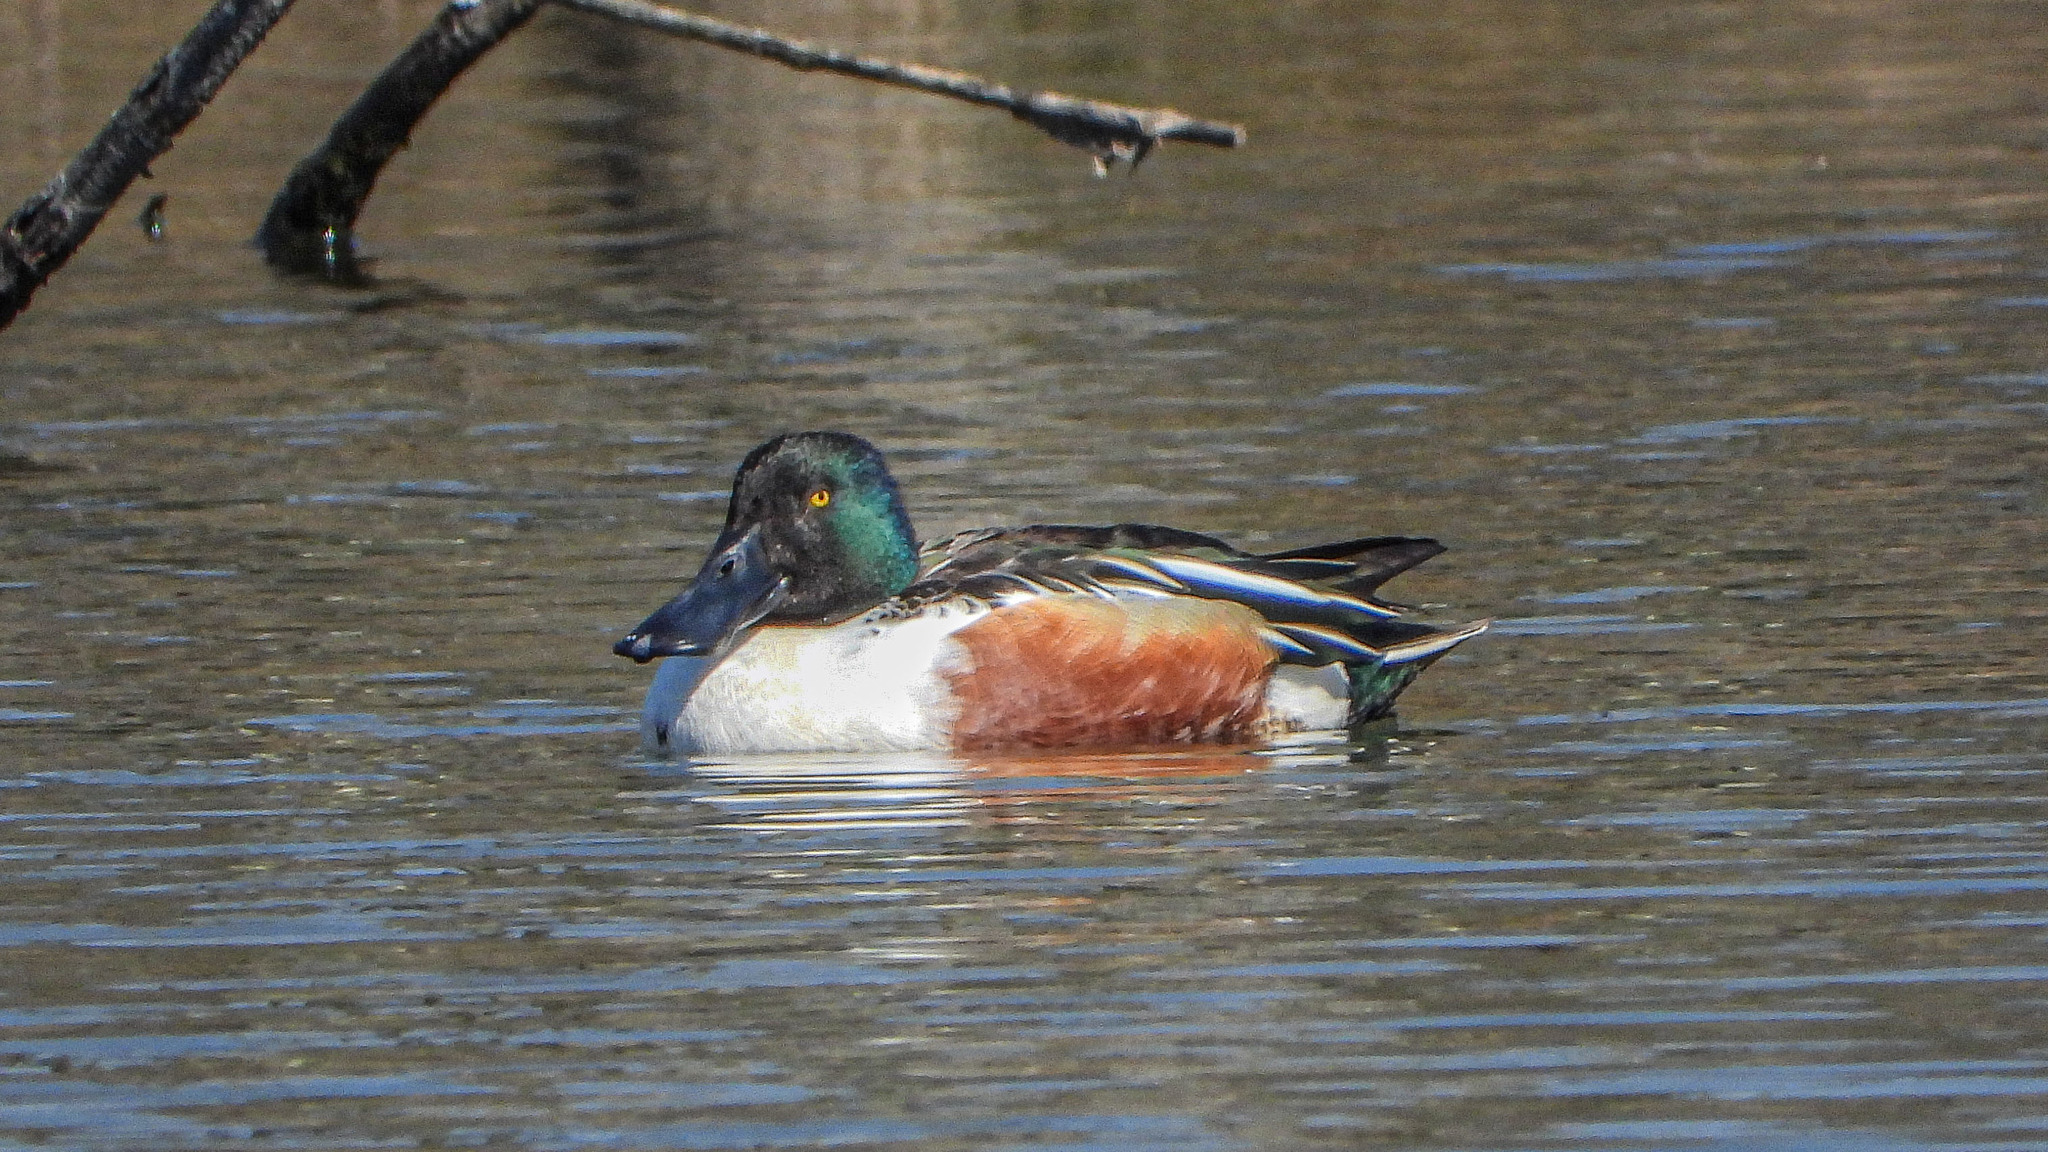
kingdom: Animalia
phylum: Chordata
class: Aves
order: Anseriformes
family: Anatidae
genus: Spatula
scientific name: Spatula clypeata
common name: Northern shoveler
